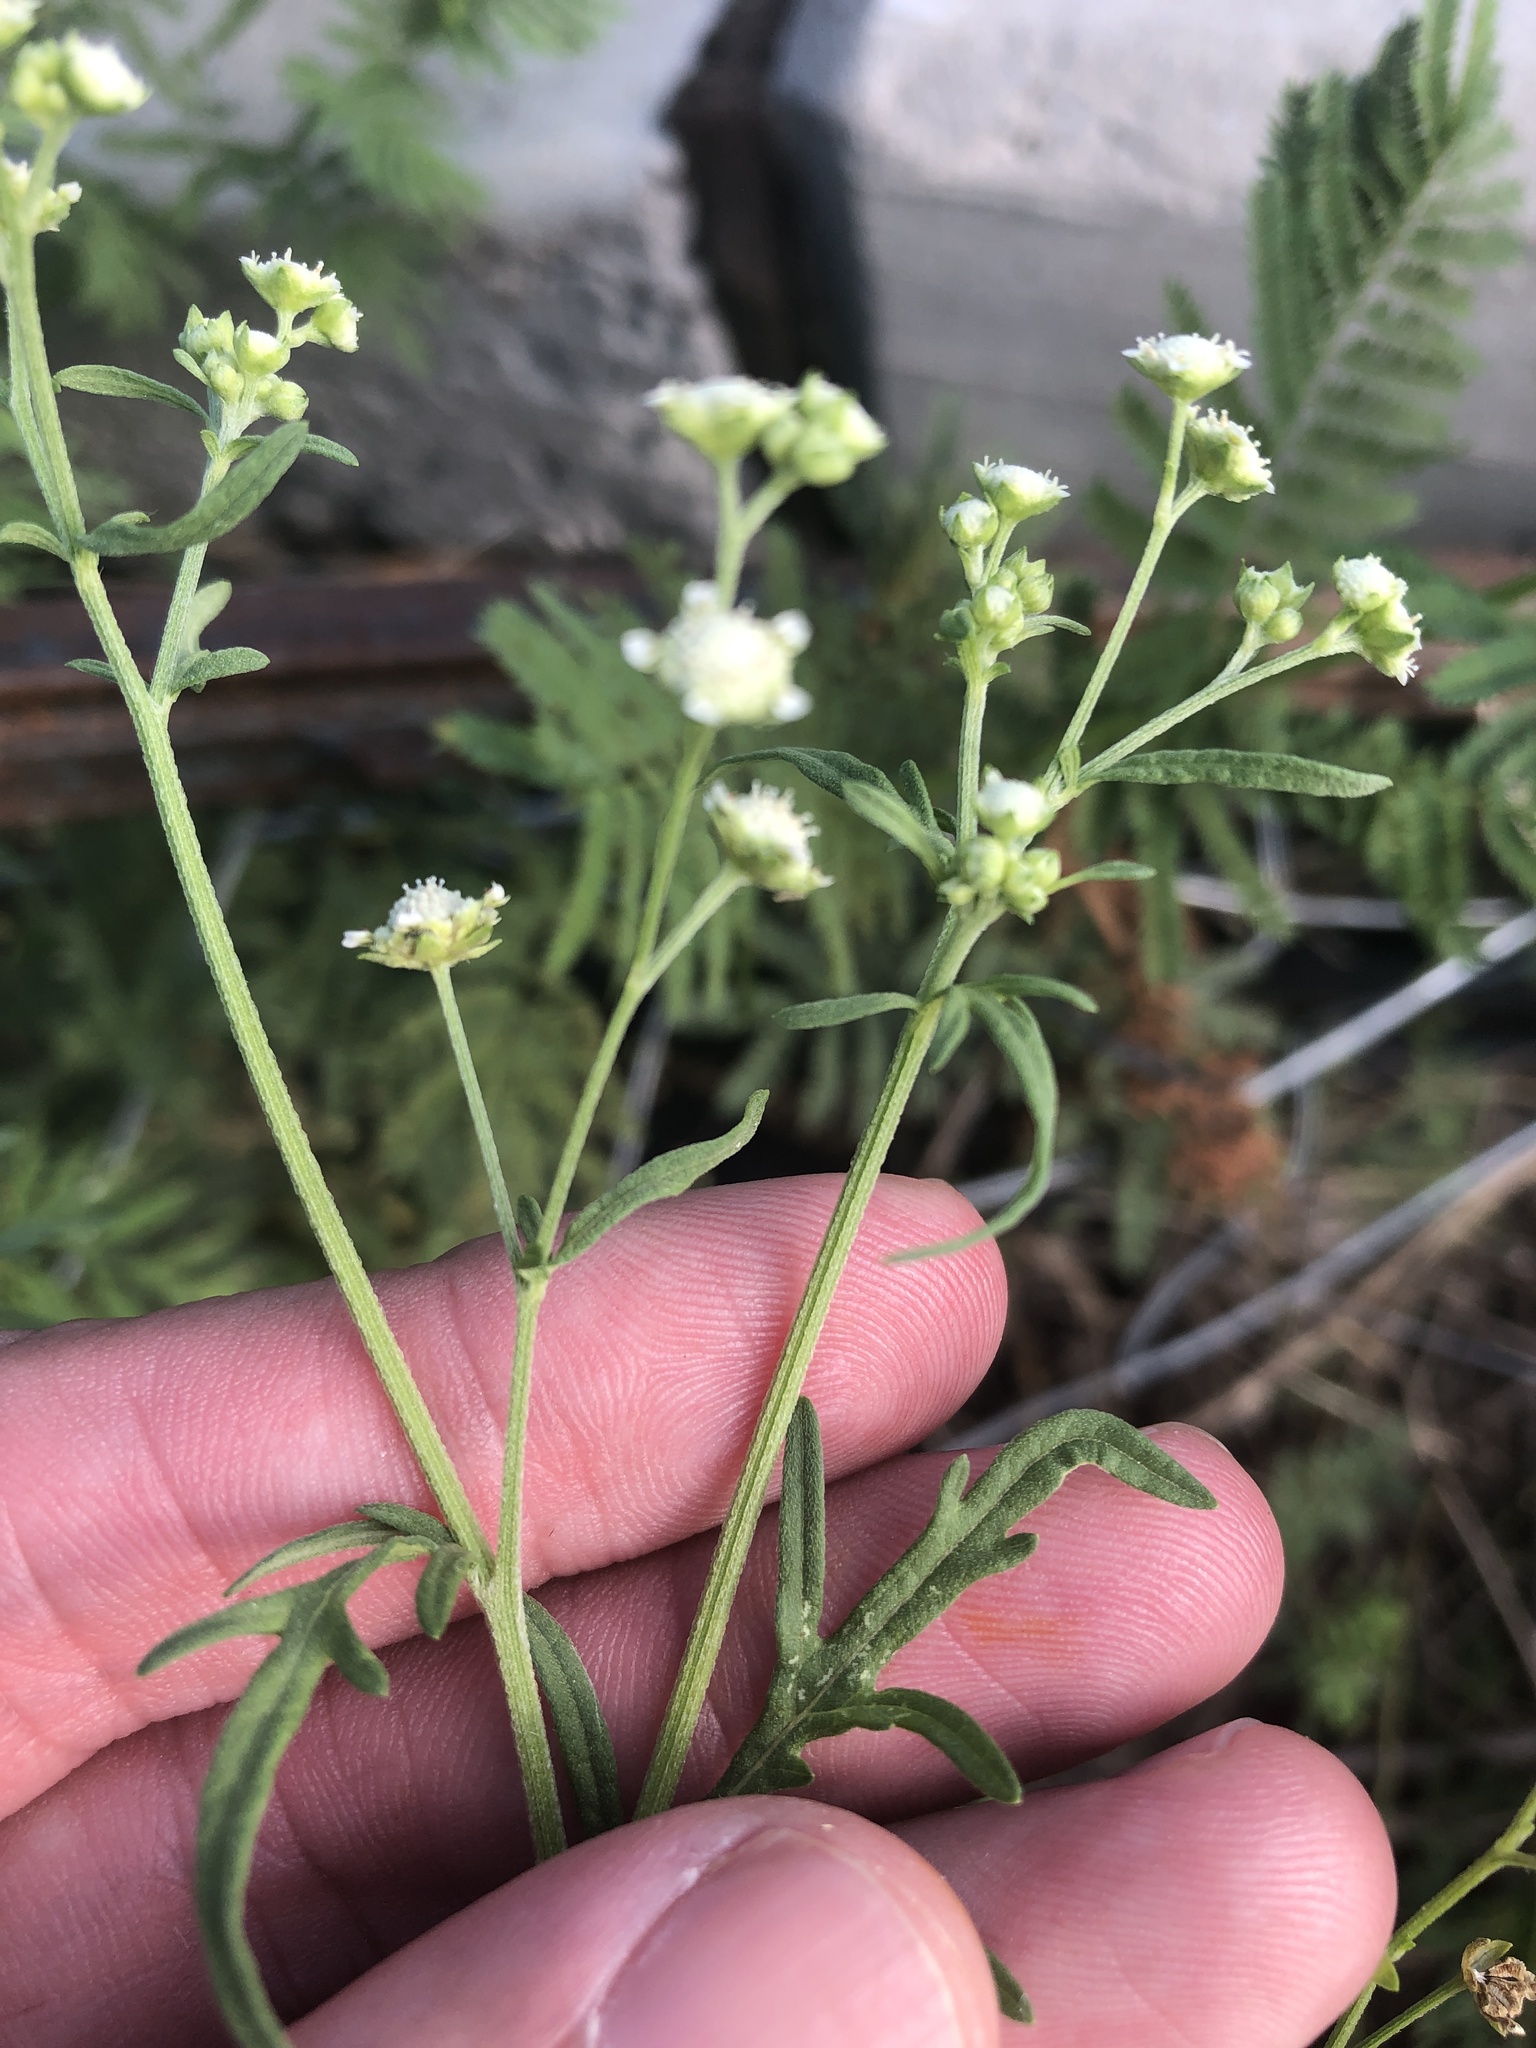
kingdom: Plantae
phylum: Tracheophyta
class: Magnoliopsida
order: Asterales
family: Asteraceae
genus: Parthenium
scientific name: Parthenium hysterophorus
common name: Santa maria feverfew
